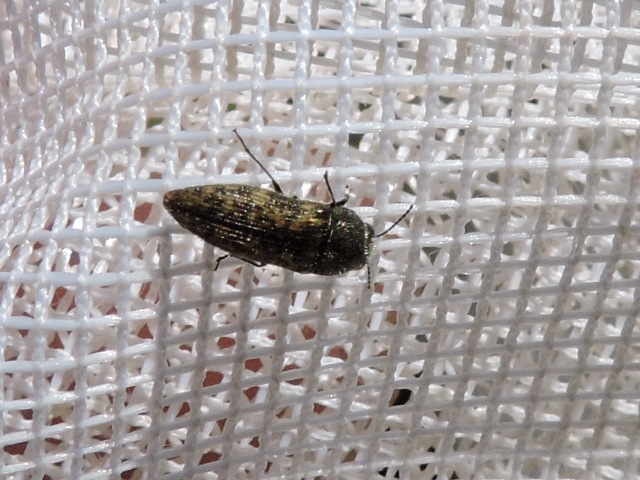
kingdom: Animalia
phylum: Arthropoda
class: Insecta
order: Coleoptera
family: Buprestidae
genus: Acmaeodera
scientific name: Acmaeodera neglecta
